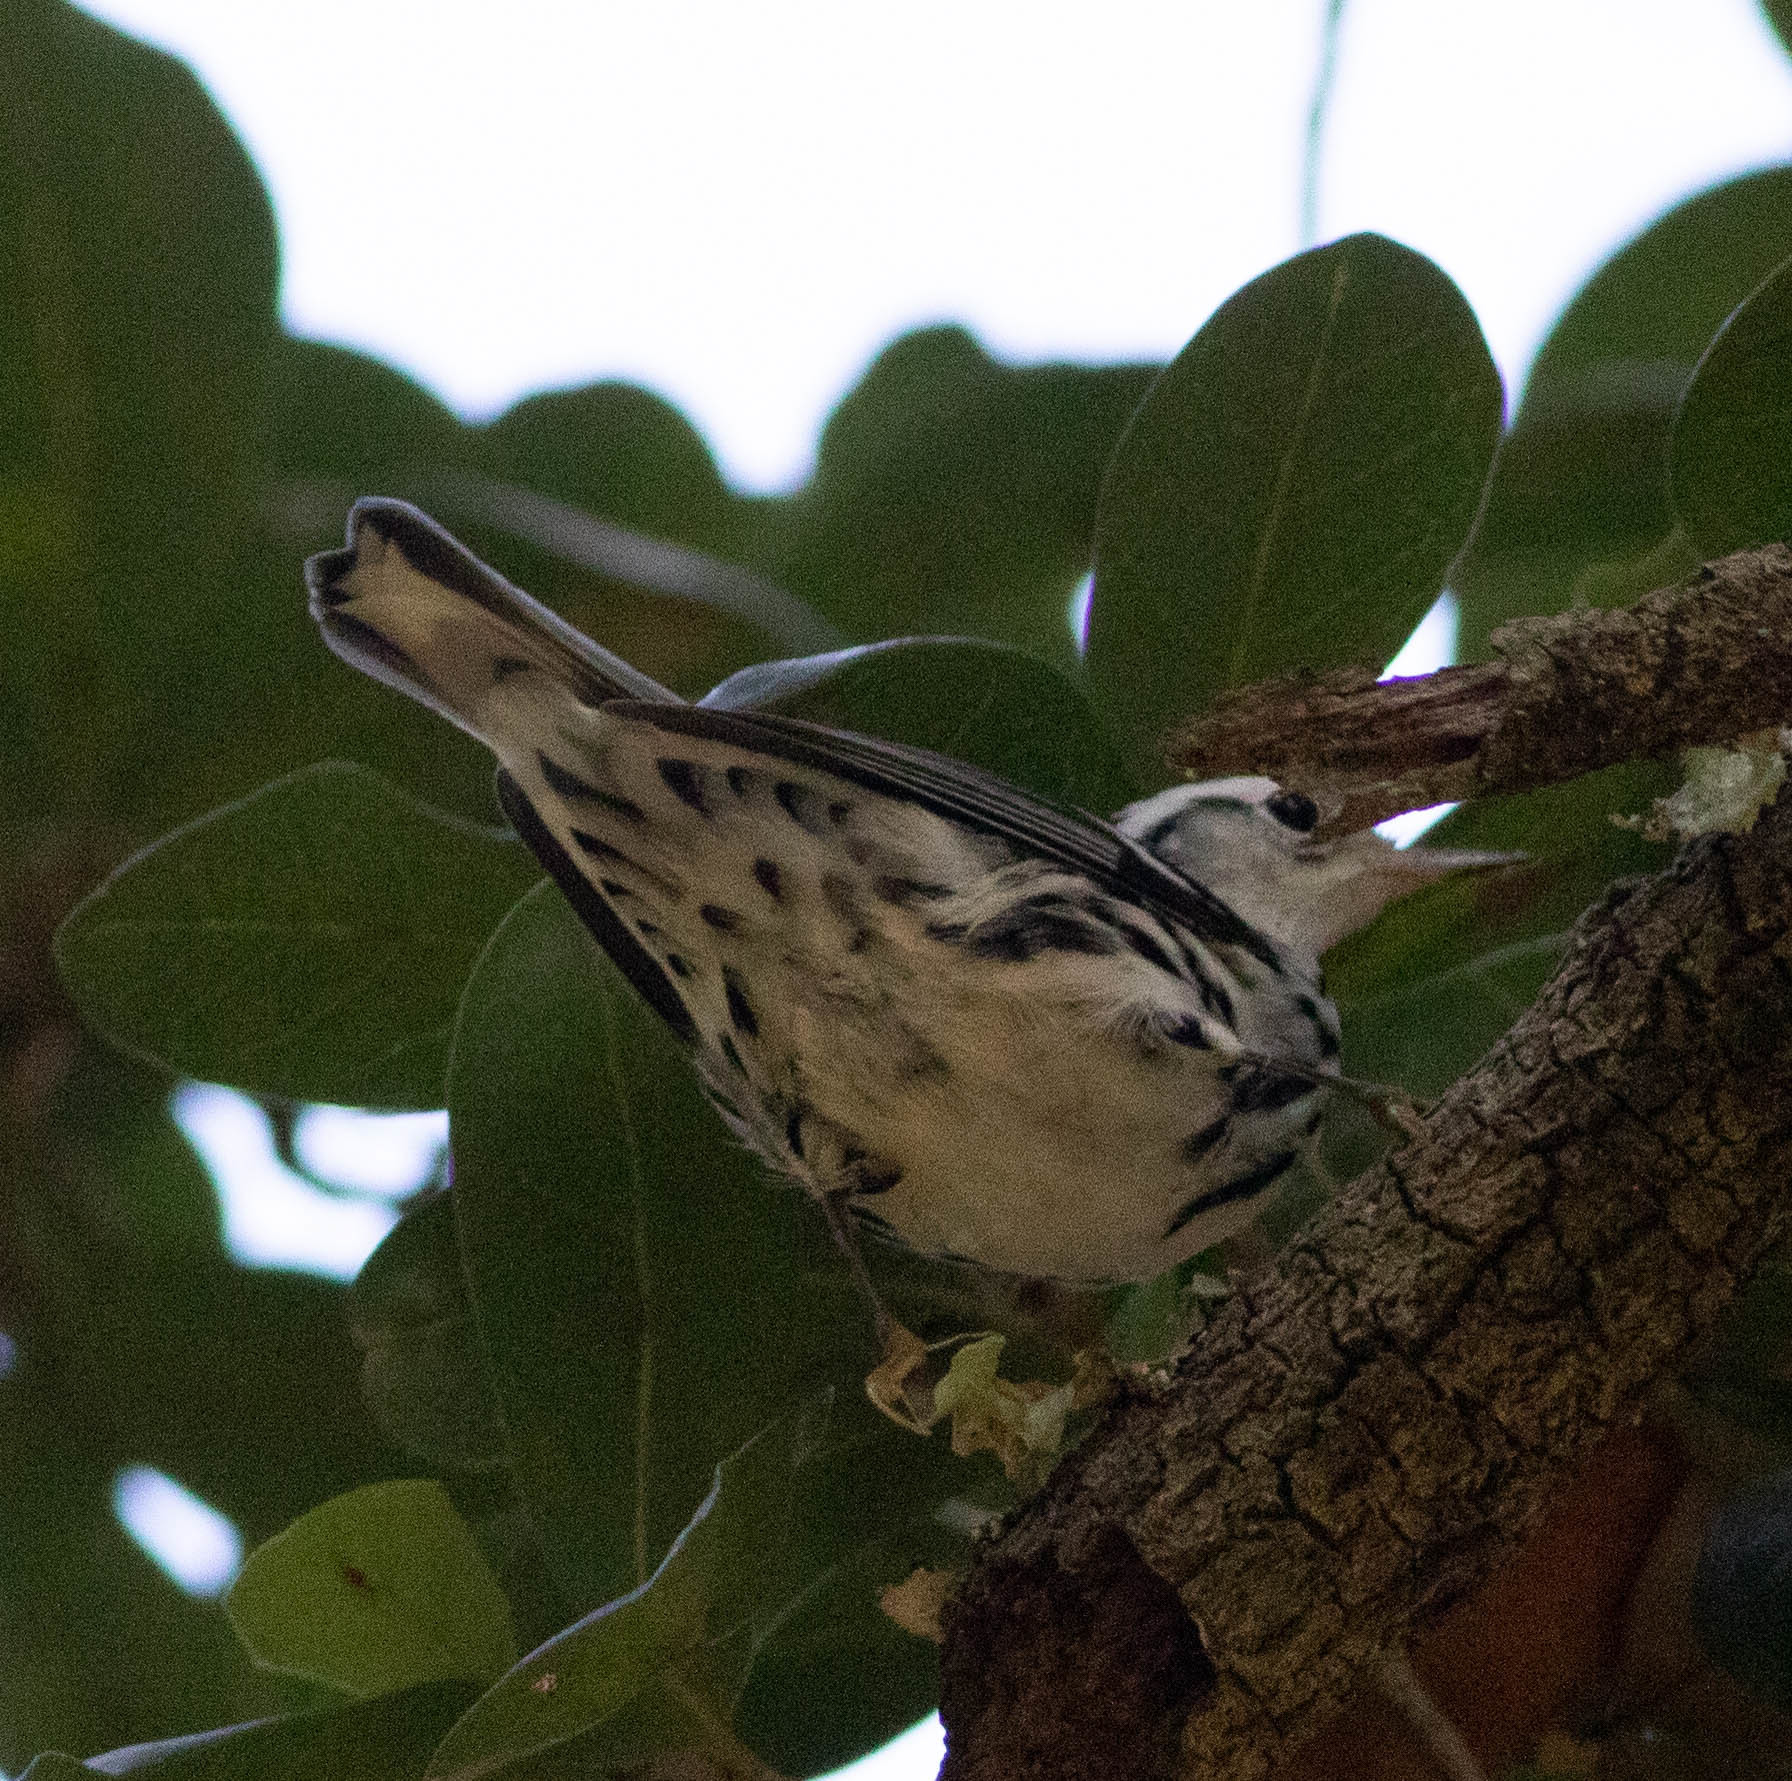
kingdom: Animalia
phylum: Chordata
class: Aves
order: Passeriformes
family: Parulidae
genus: Mniotilta
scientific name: Mniotilta varia
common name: Black-and-white warbler
